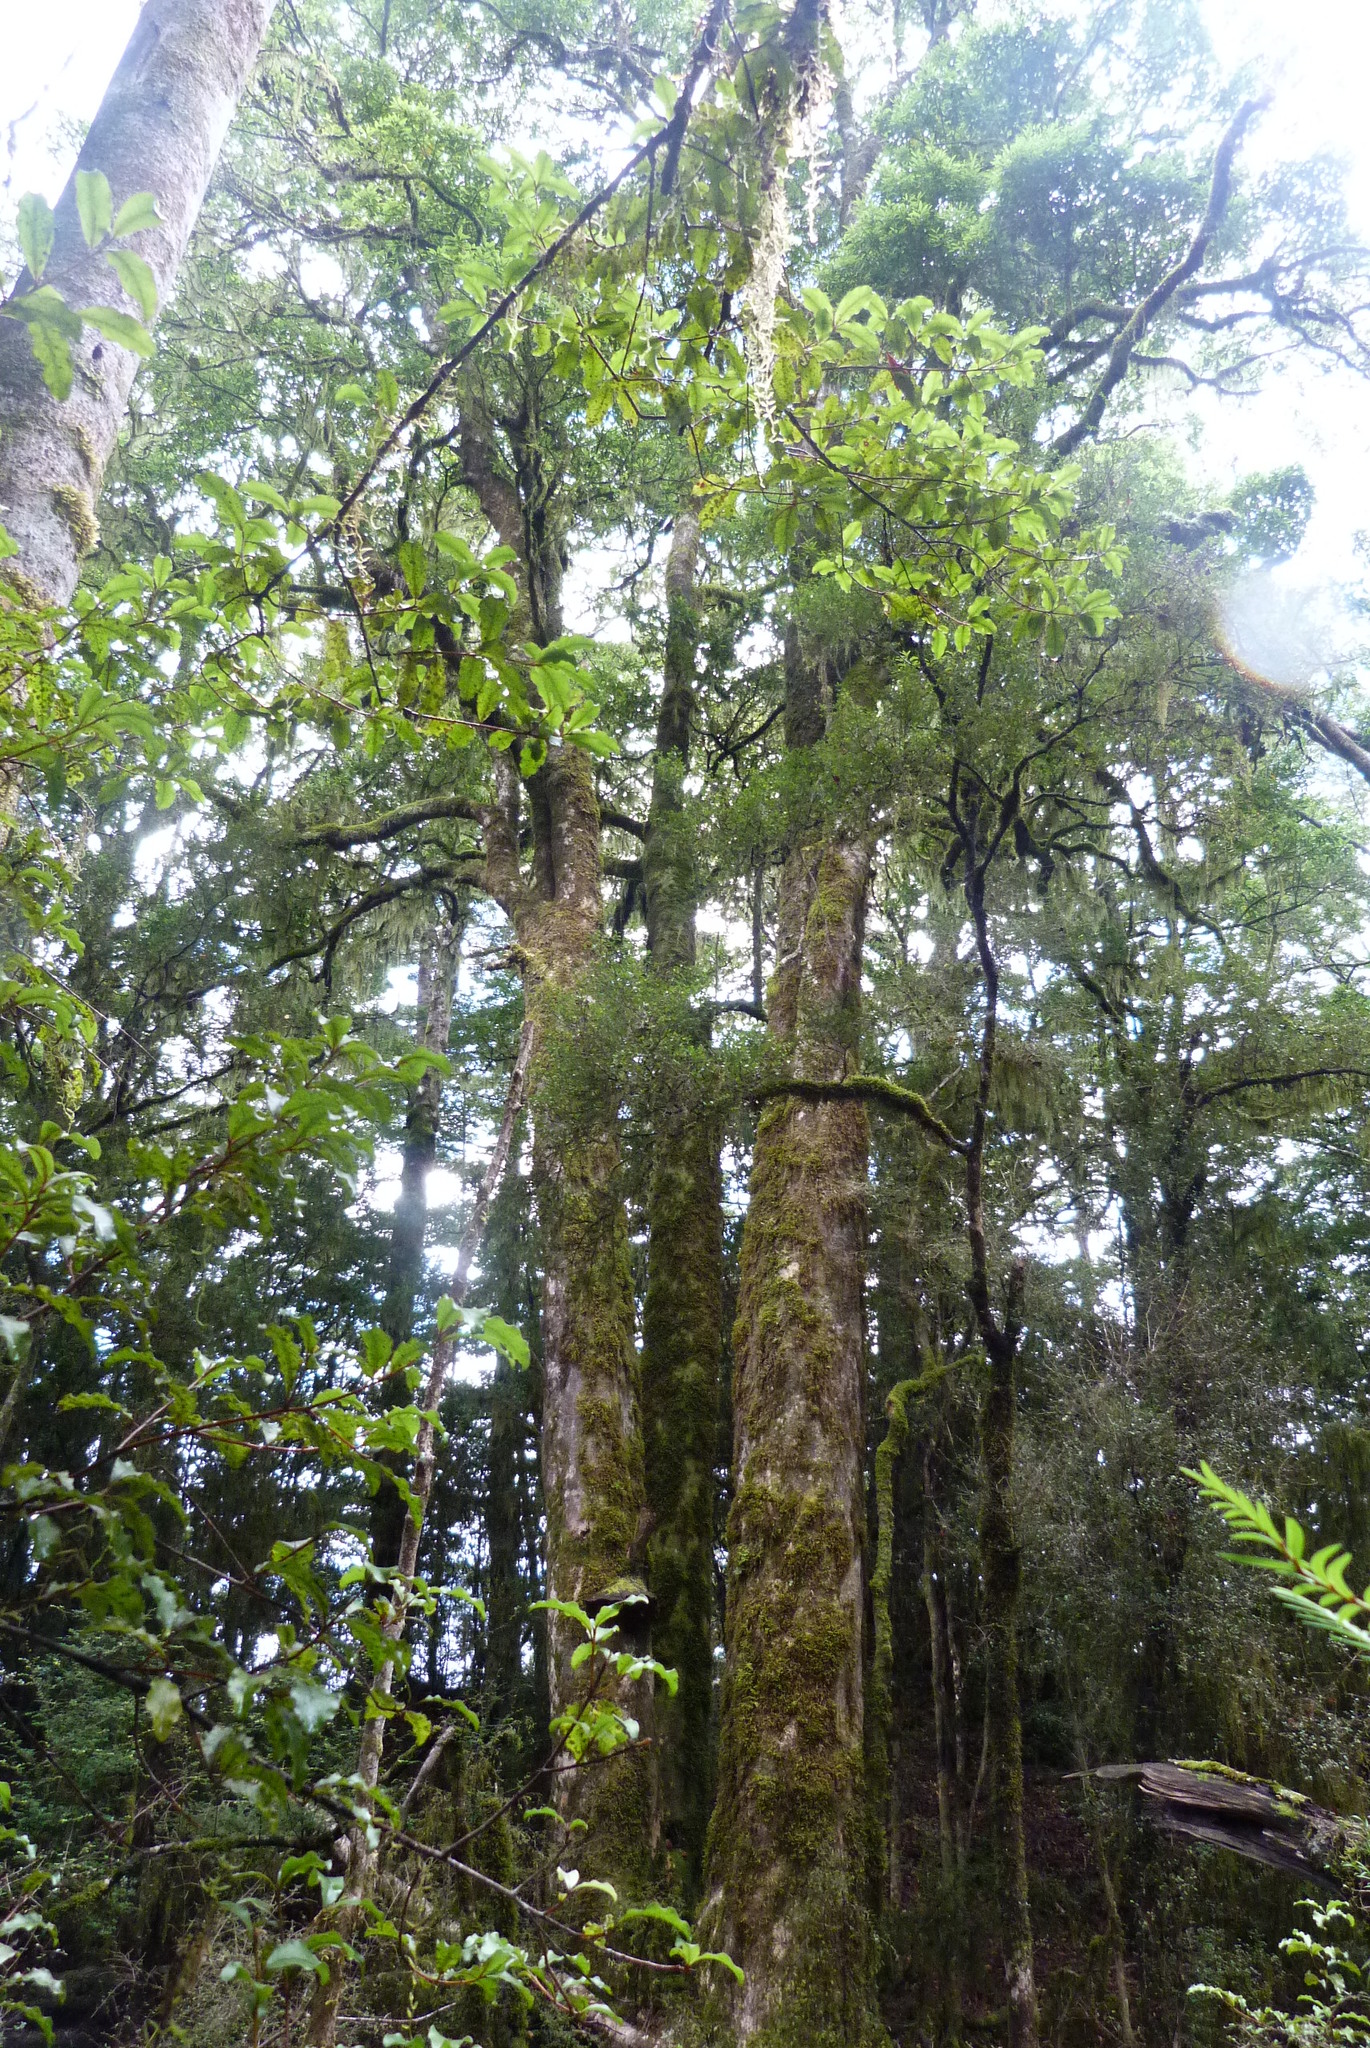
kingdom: Plantae
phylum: Tracheophyta
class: Magnoliopsida
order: Oxalidales
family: Elaeocarpaceae
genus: Elaeocarpus
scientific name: Elaeocarpus hookerianus
